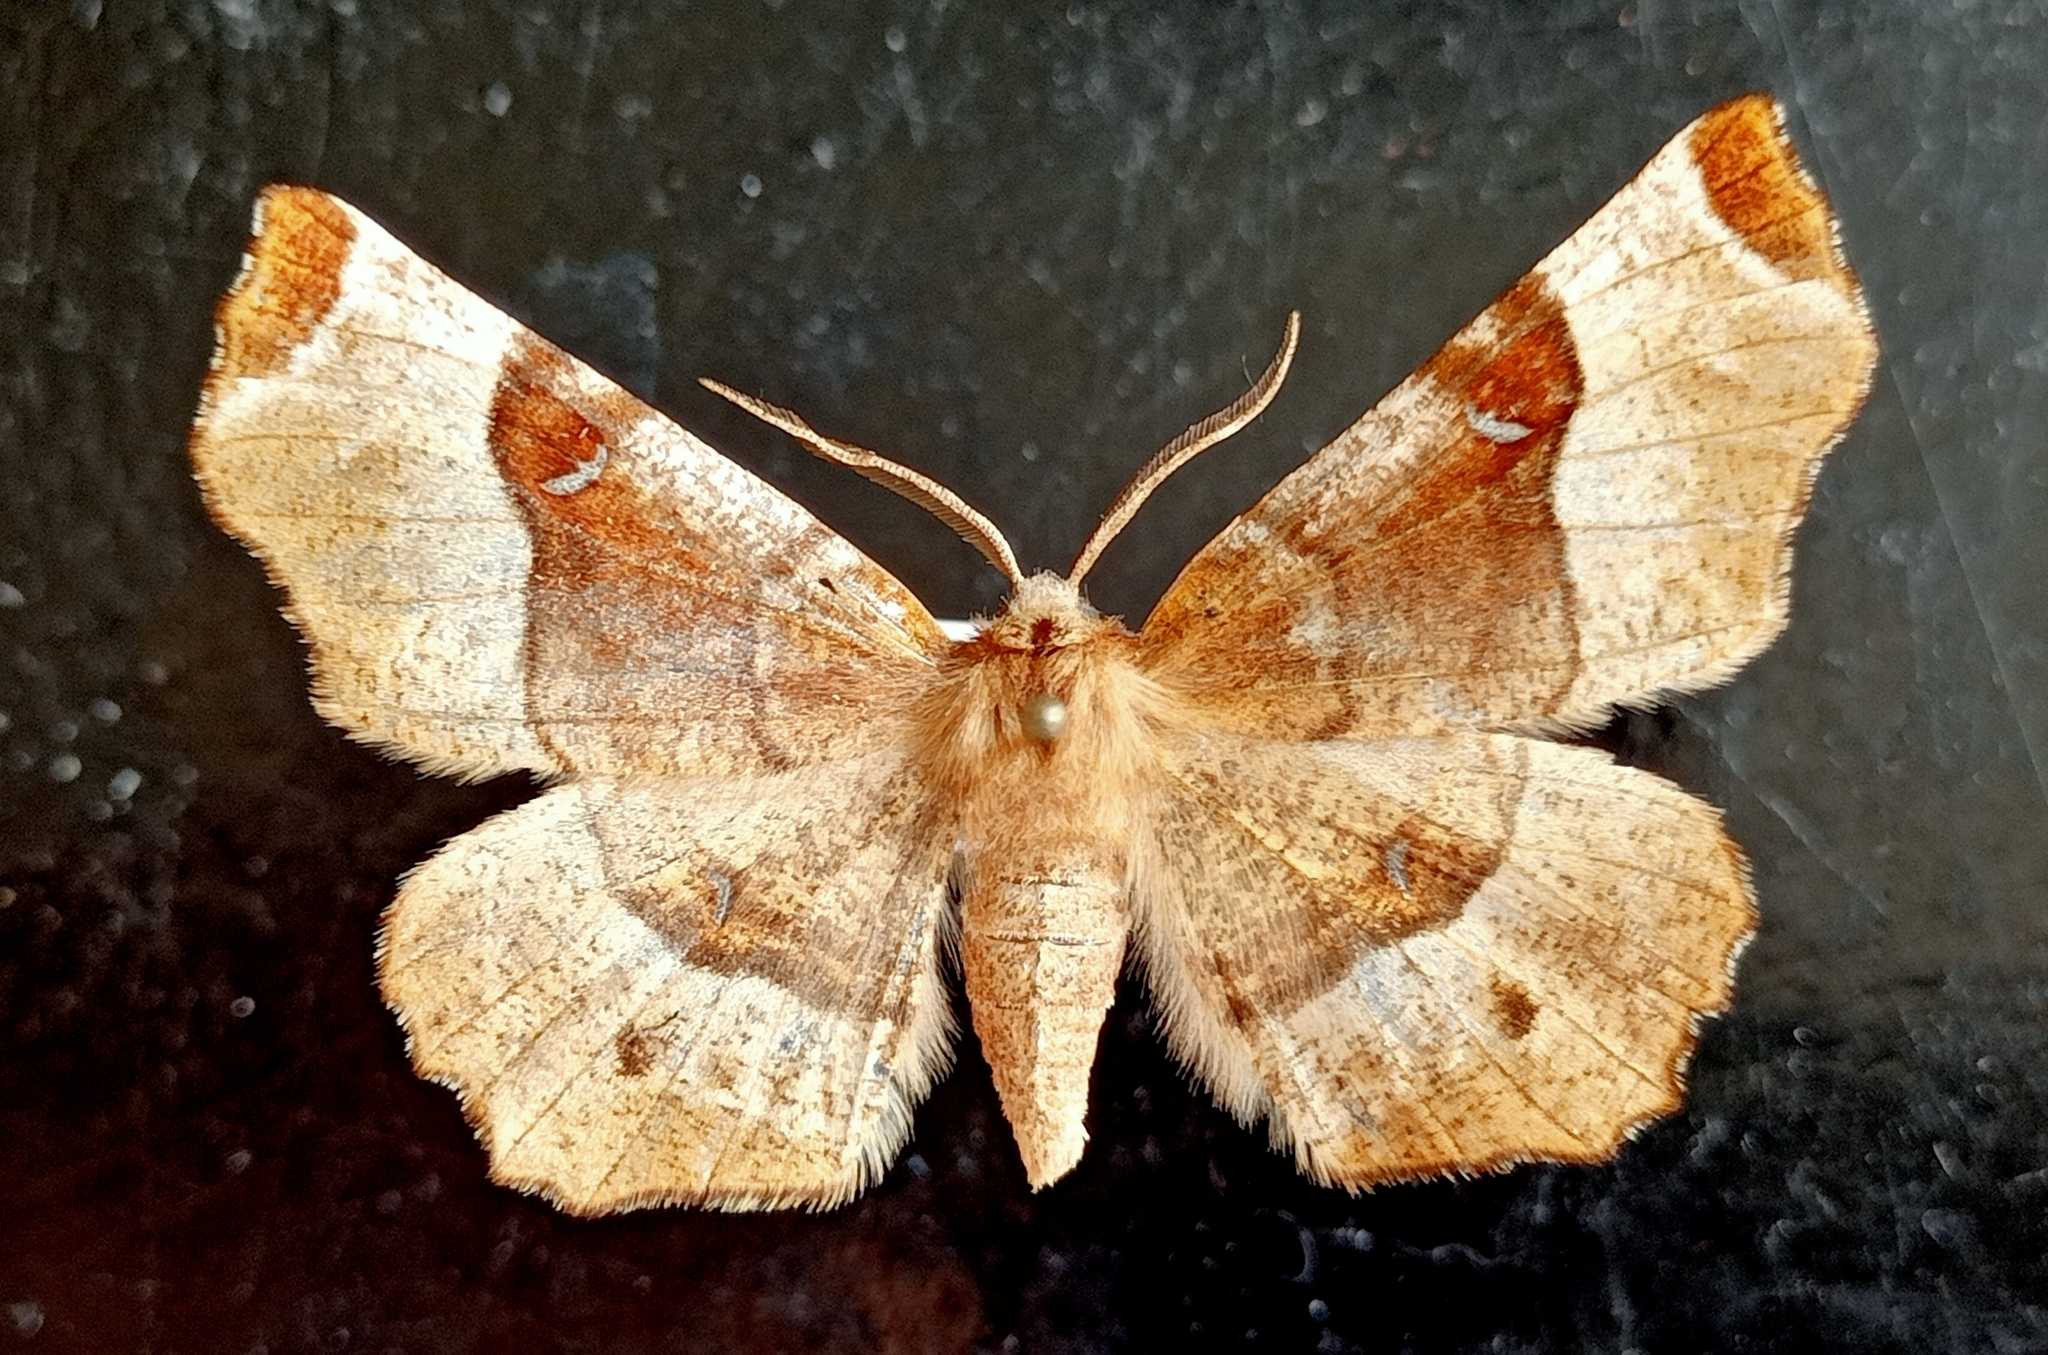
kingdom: Animalia
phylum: Arthropoda
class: Insecta
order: Lepidoptera
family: Geometridae
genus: Selenia
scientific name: Selenia tetralunaria
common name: Purple thorn
